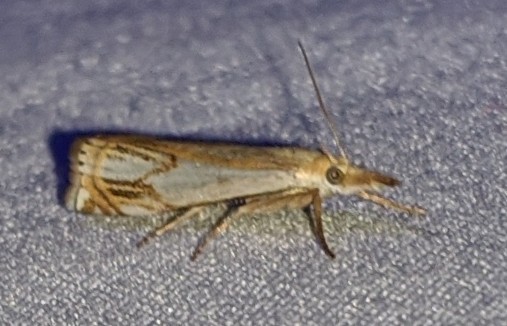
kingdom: Animalia
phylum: Arthropoda
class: Insecta
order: Lepidoptera
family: Crambidae
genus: Crambus
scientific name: Crambus agitatellus
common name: Double-banded grass-veneer
